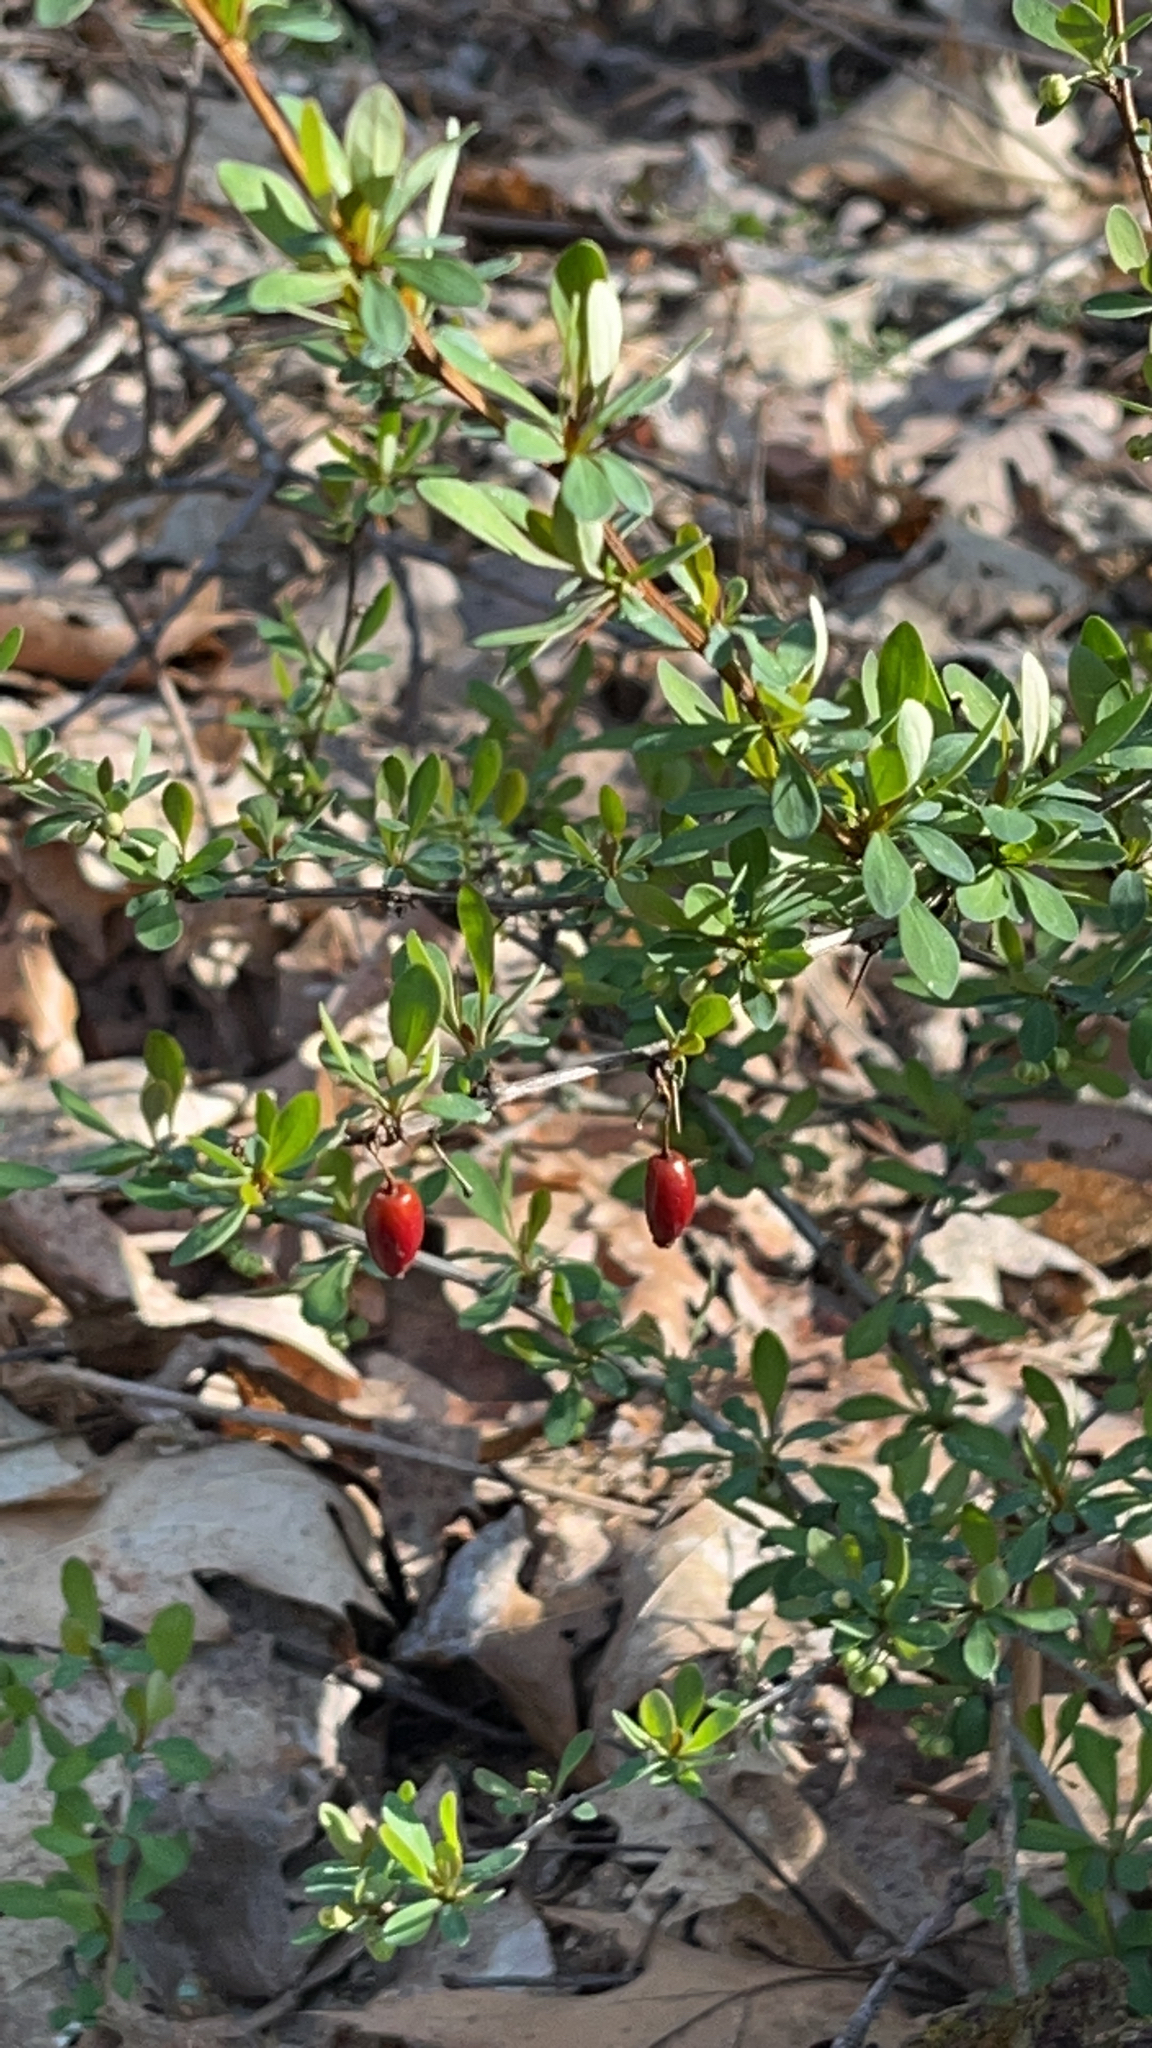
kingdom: Plantae
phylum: Tracheophyta
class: Magnoliopsida
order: Ranunculales
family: Berberidaceae
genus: Berberis
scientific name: Berberis thunbergii
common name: Japanese barberry
